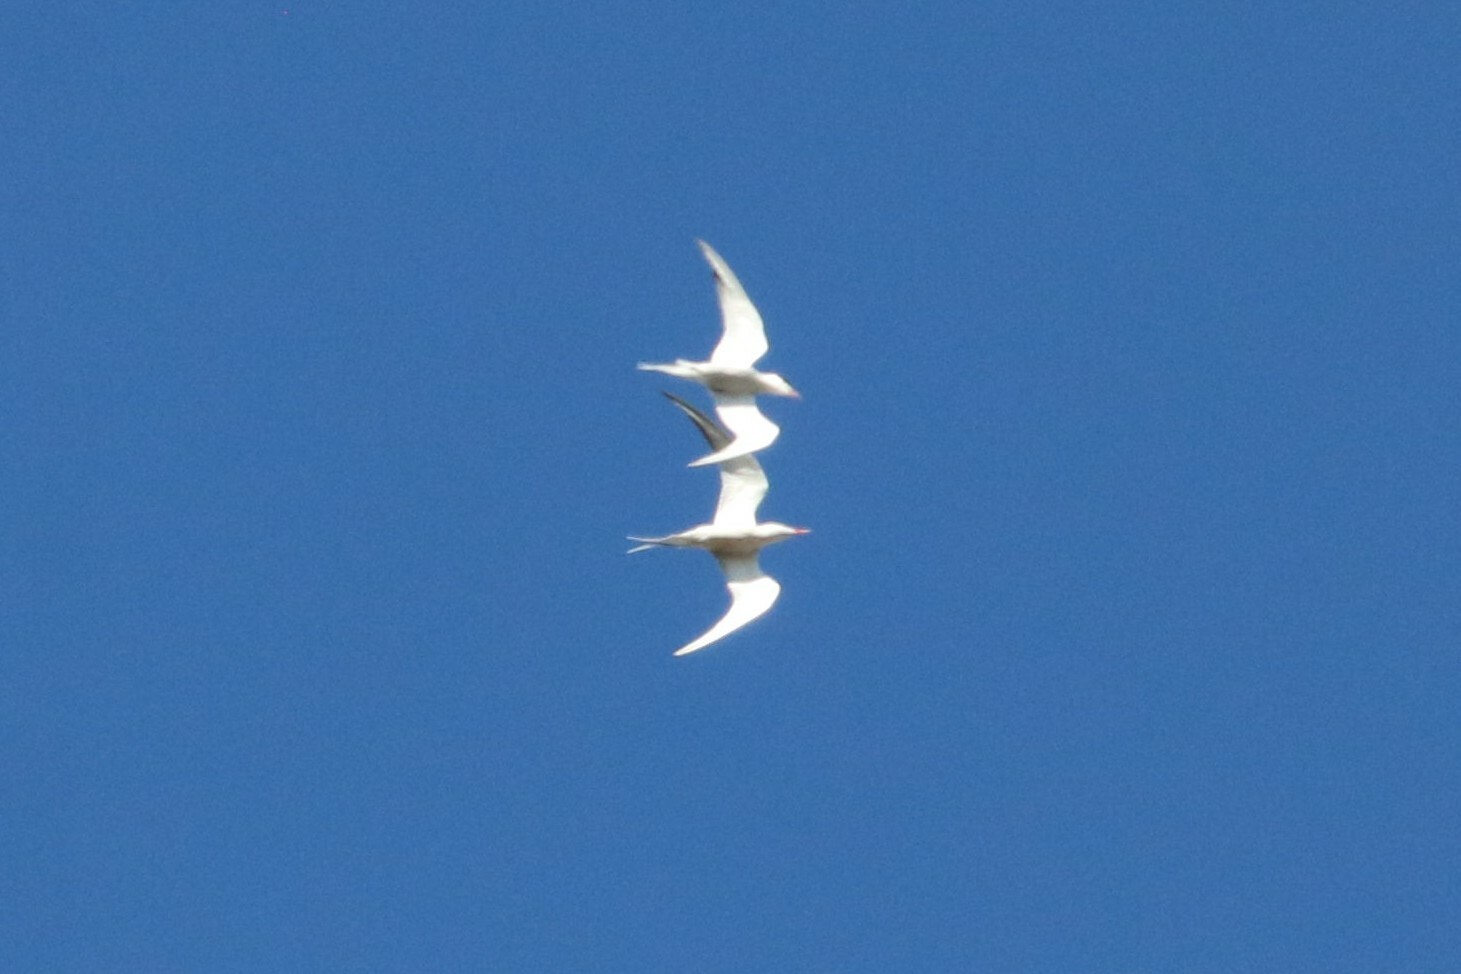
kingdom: Animalia
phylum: Chordata
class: Aves
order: Charadriiformes
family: Laridae
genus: Sterna
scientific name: Sterna hirundo
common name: Common tern
